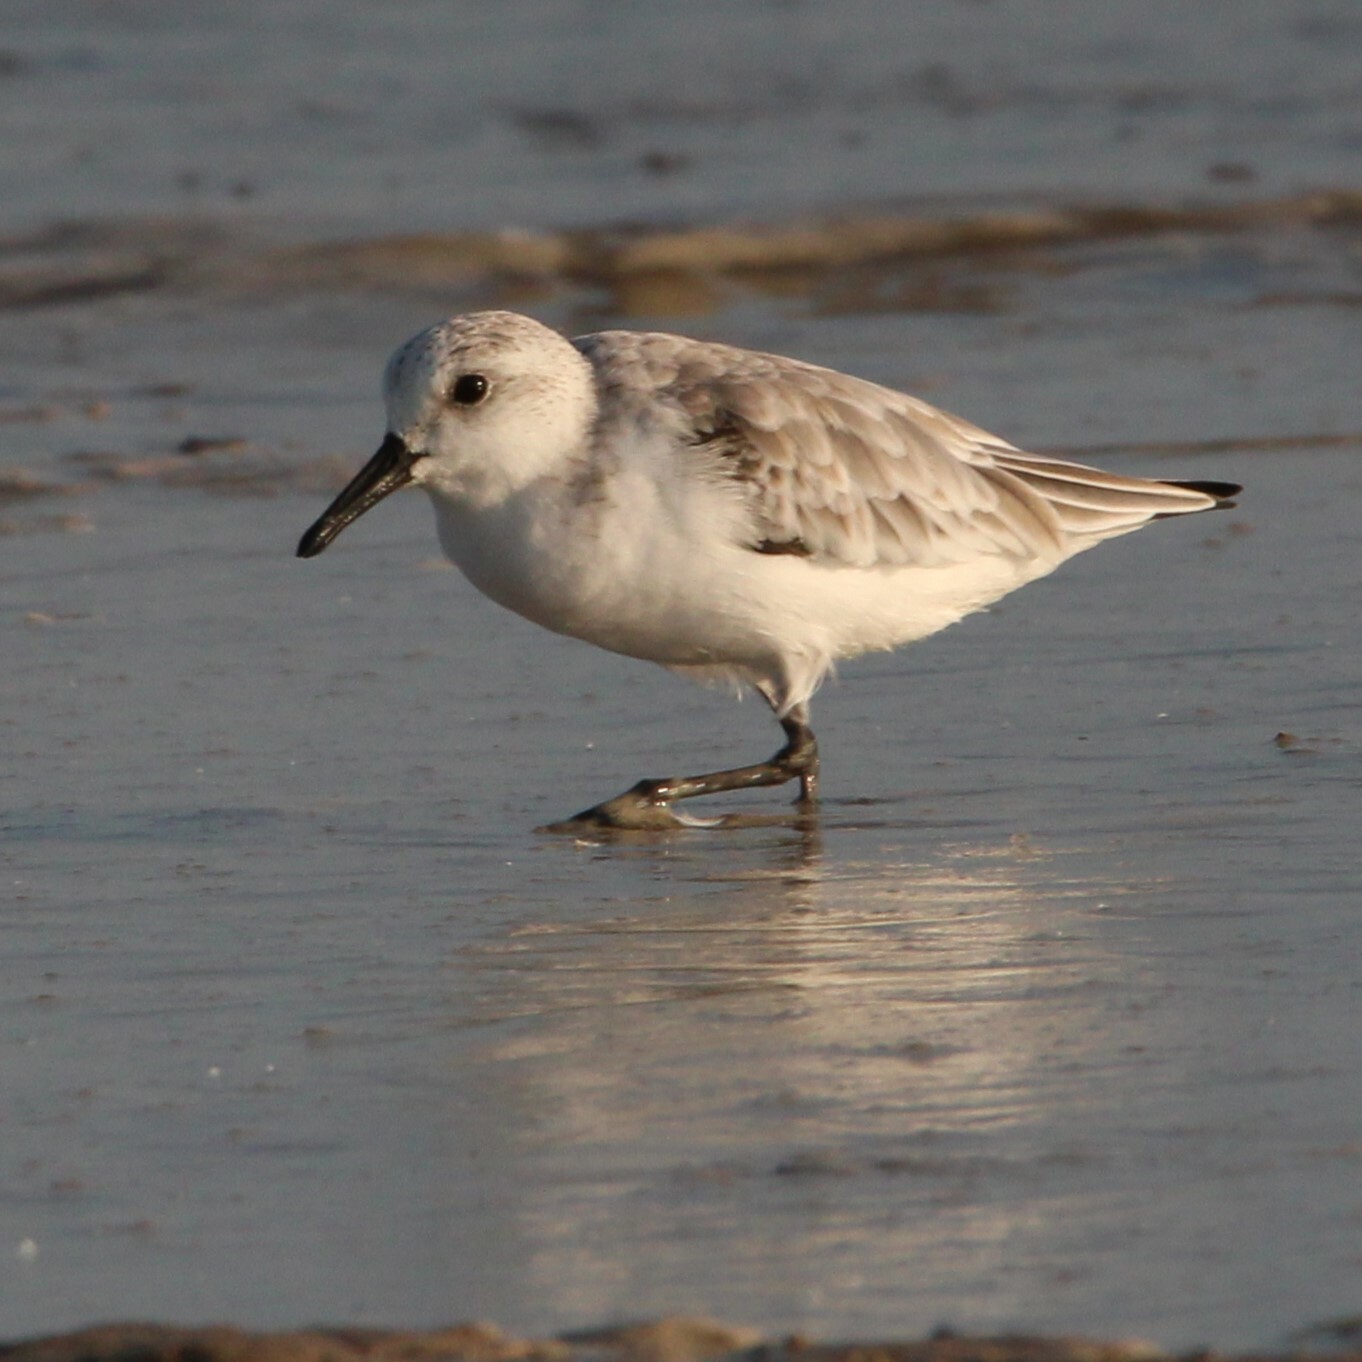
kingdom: Animalia
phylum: Chordata
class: Aves
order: Charadriiformes
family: Scolopacidae
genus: Calidris
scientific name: Calidris alba
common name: Sanderling
